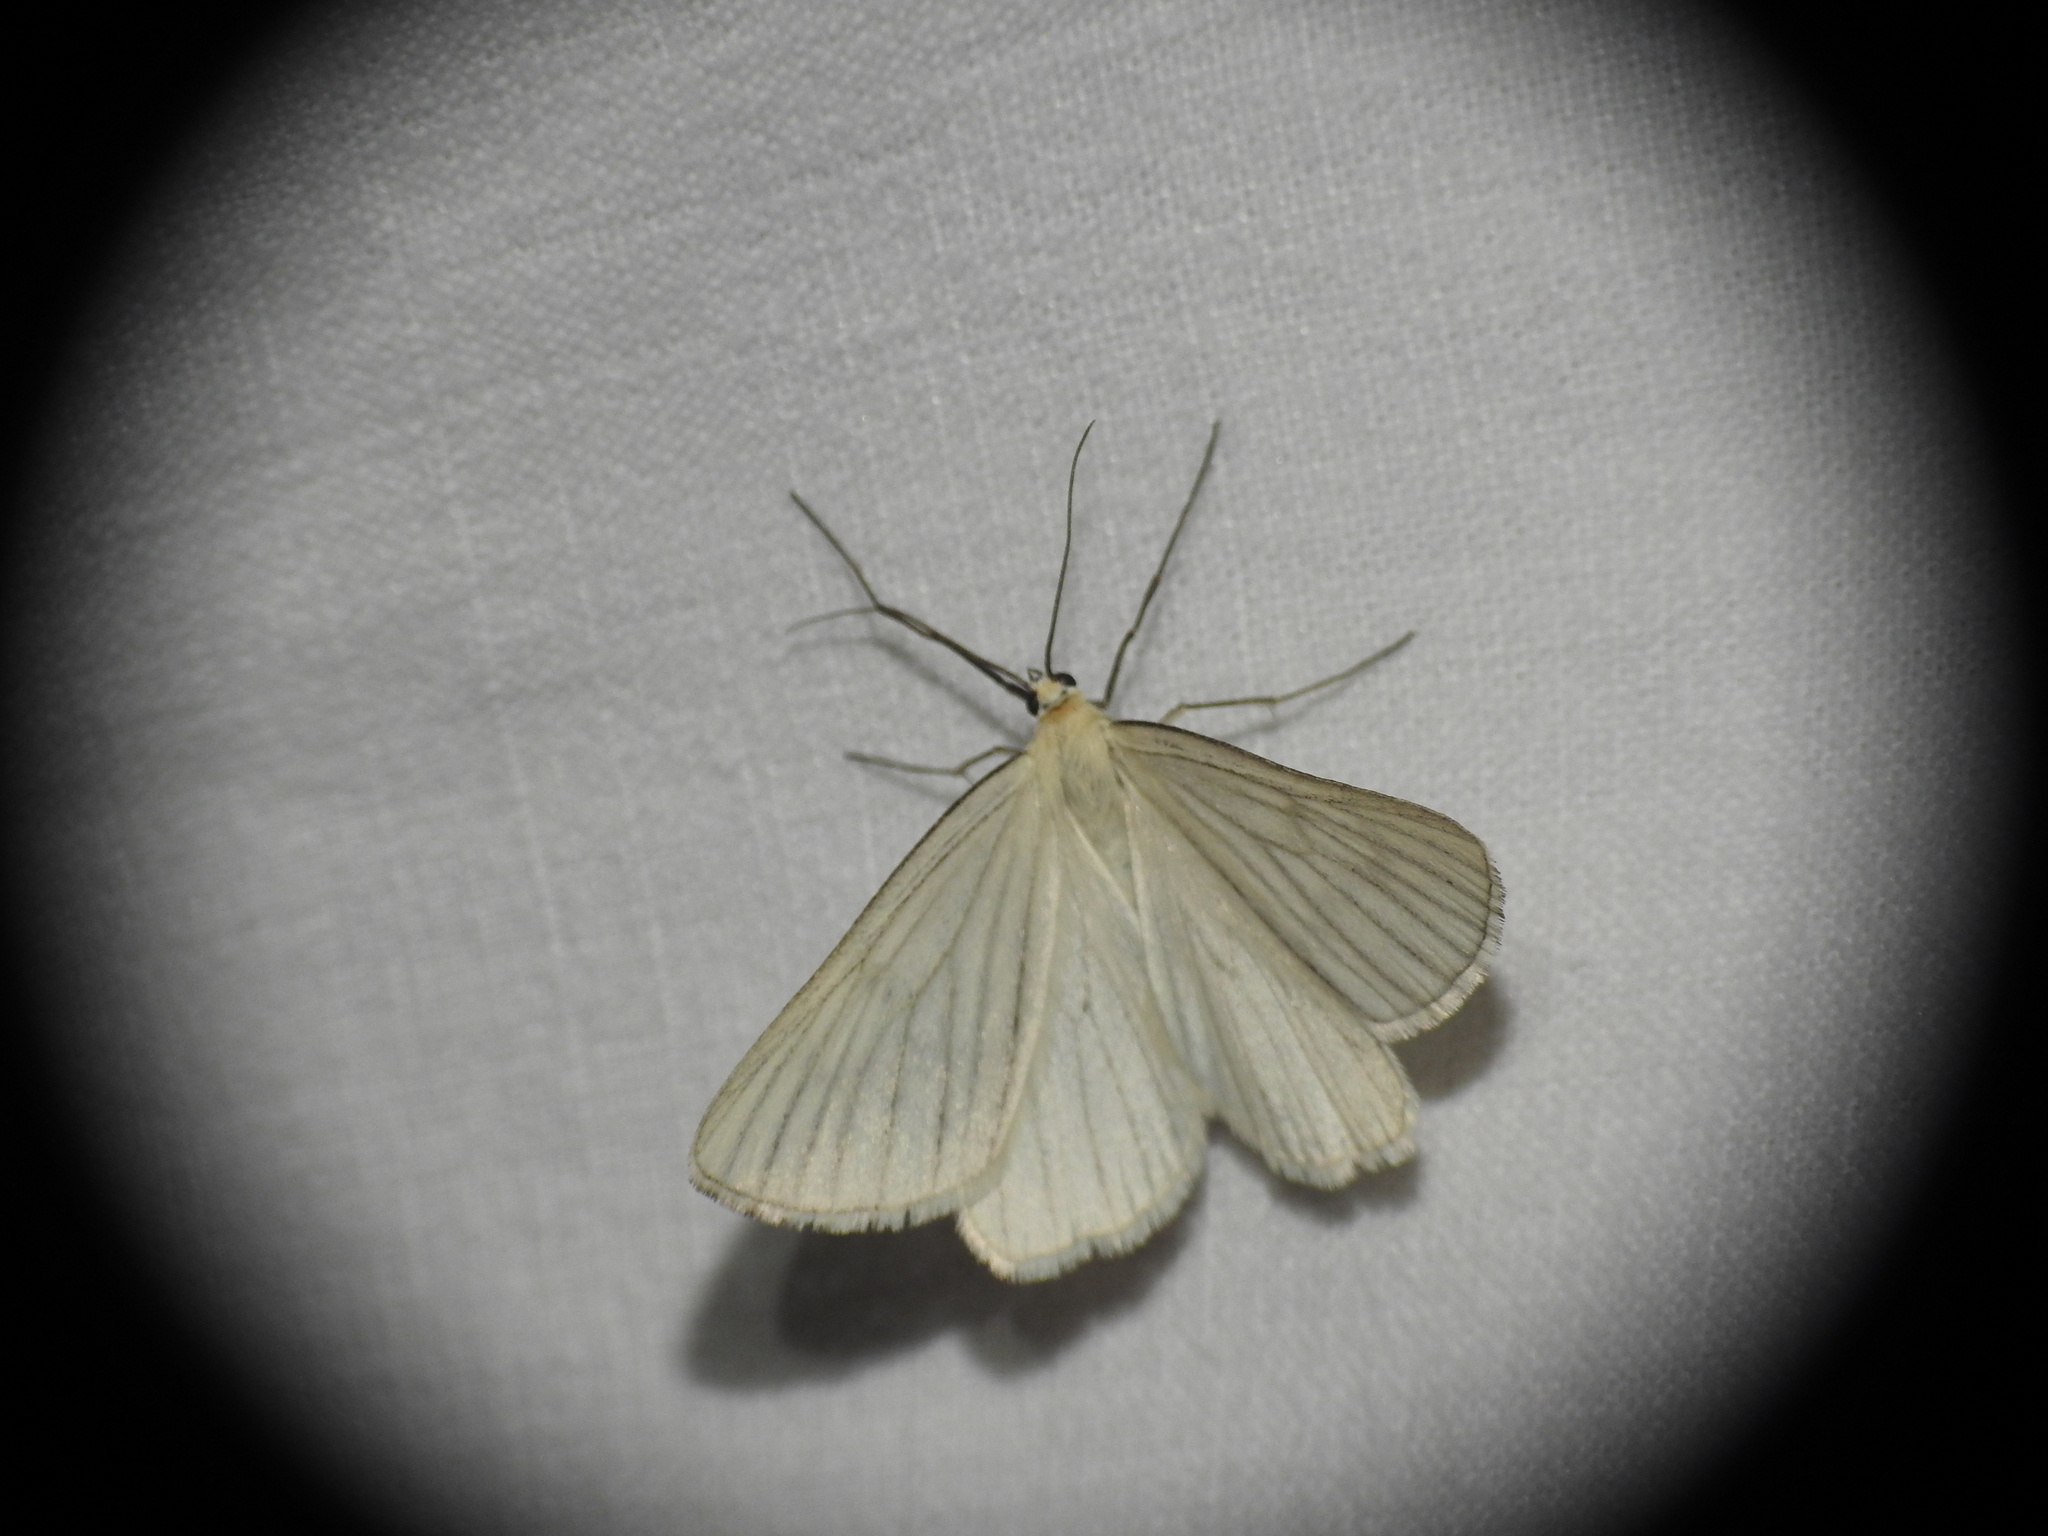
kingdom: Animalia
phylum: Arthropoda
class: Insecta
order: Lepidoptera
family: Geometridae
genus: Siona
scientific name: Siona lineata
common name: Black-veined moth
